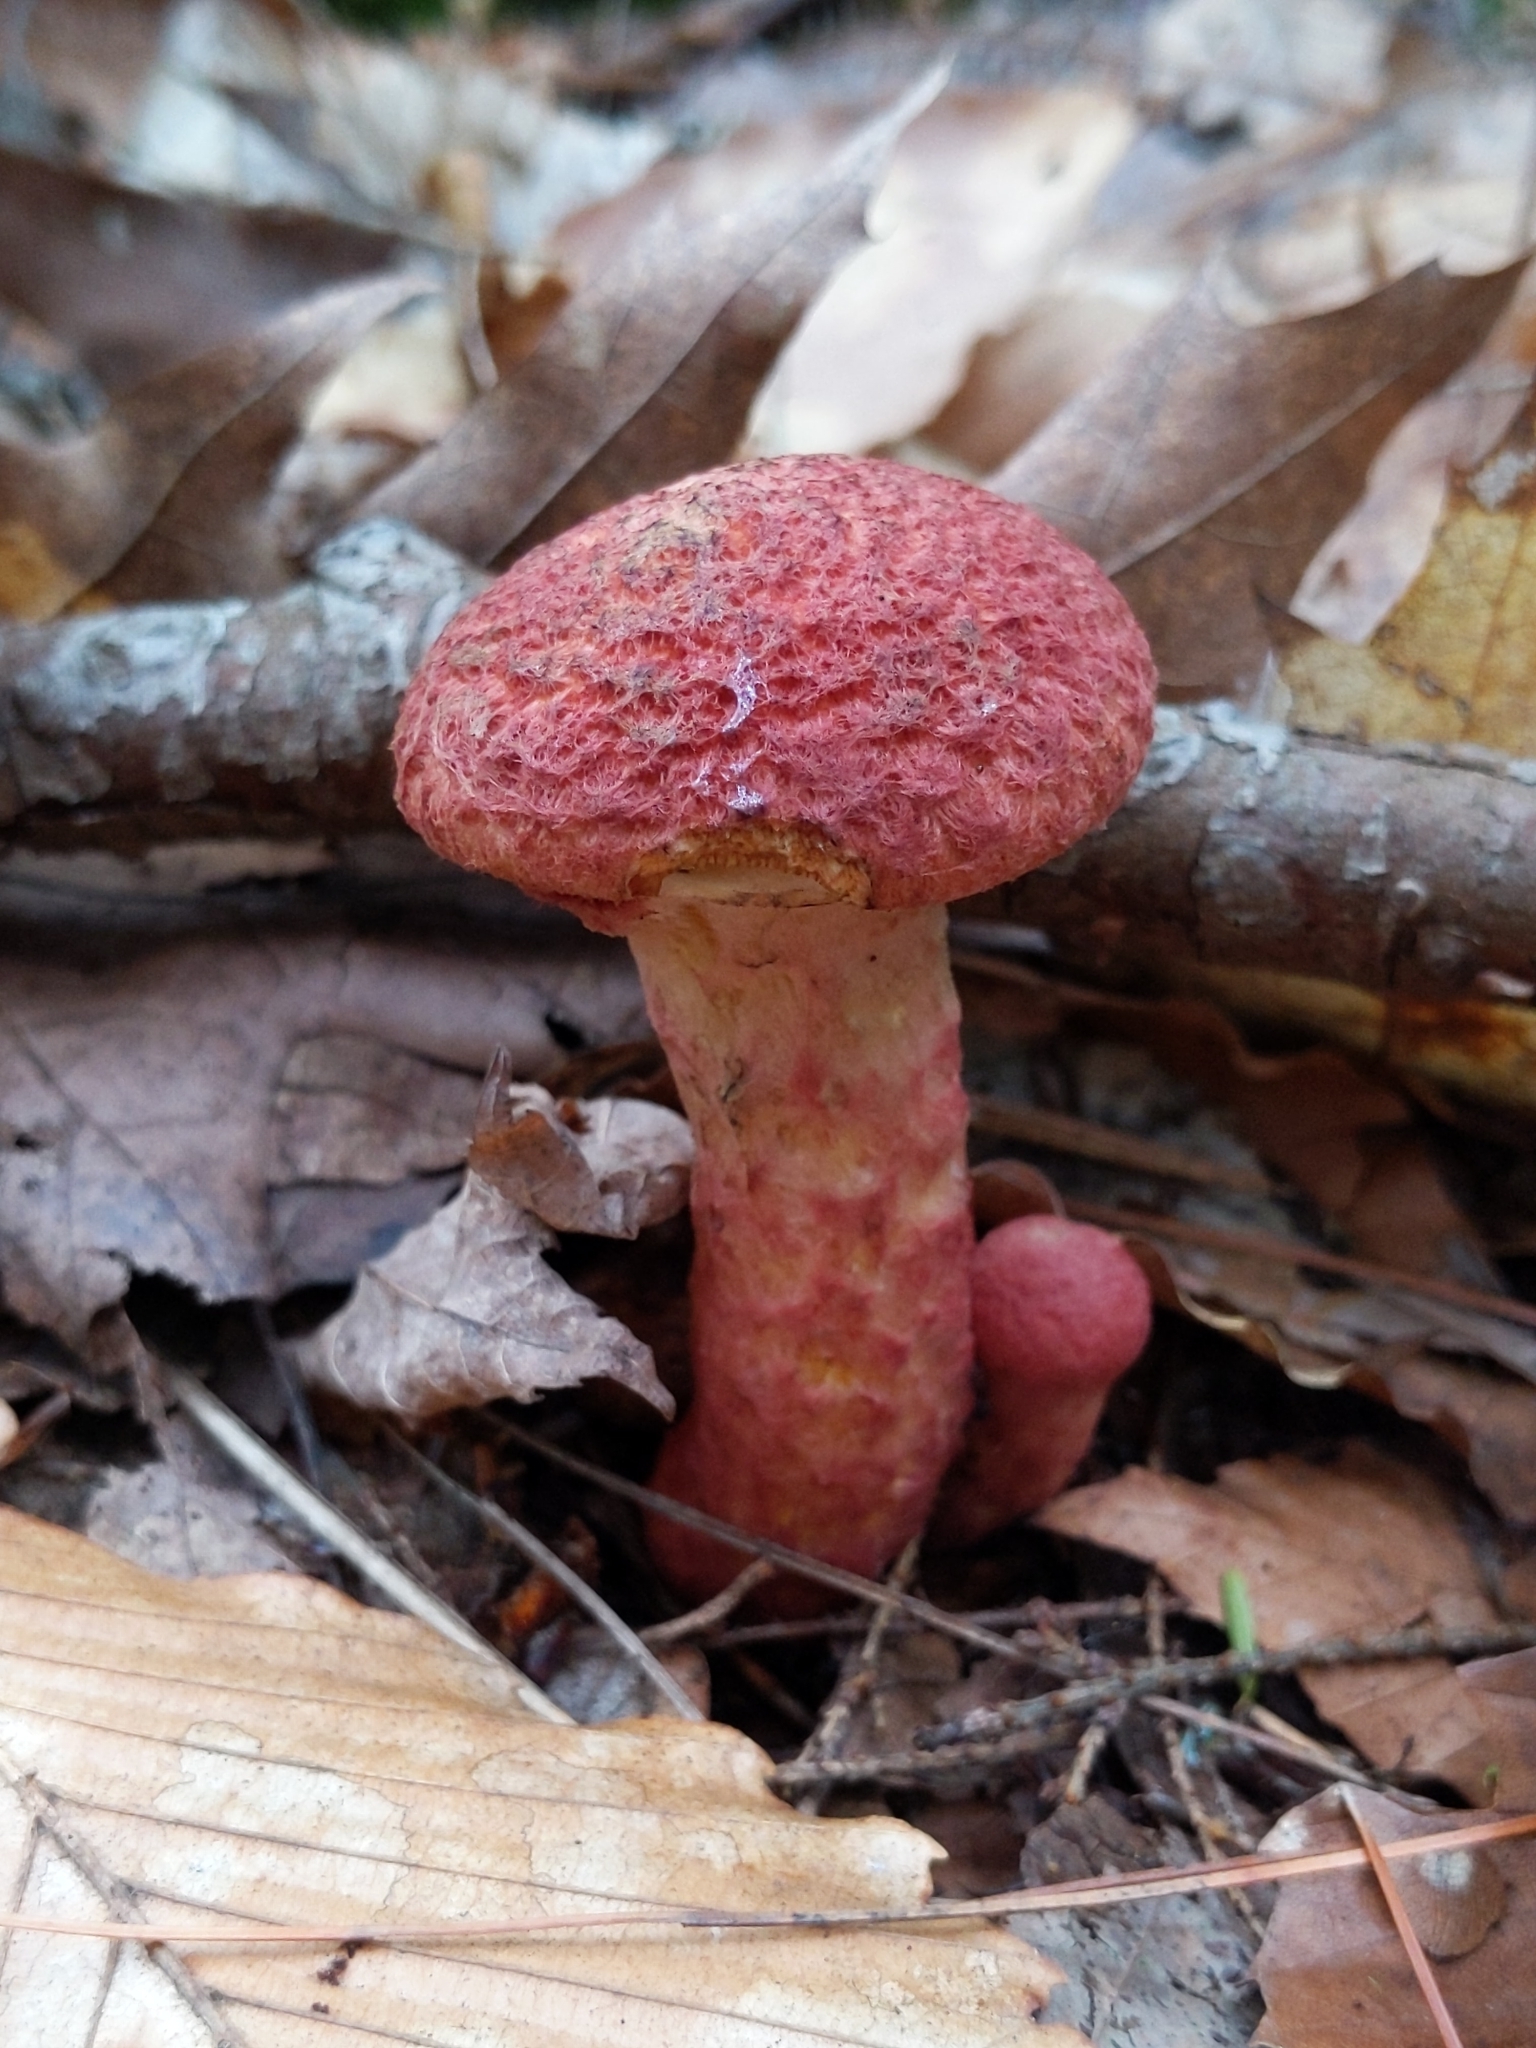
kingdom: Fungi
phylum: Basidiomycota
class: Agaricomycetes
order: Boletales
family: Suillaceae
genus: Suillus
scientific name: Suillus spraguei
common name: Painted suillus
